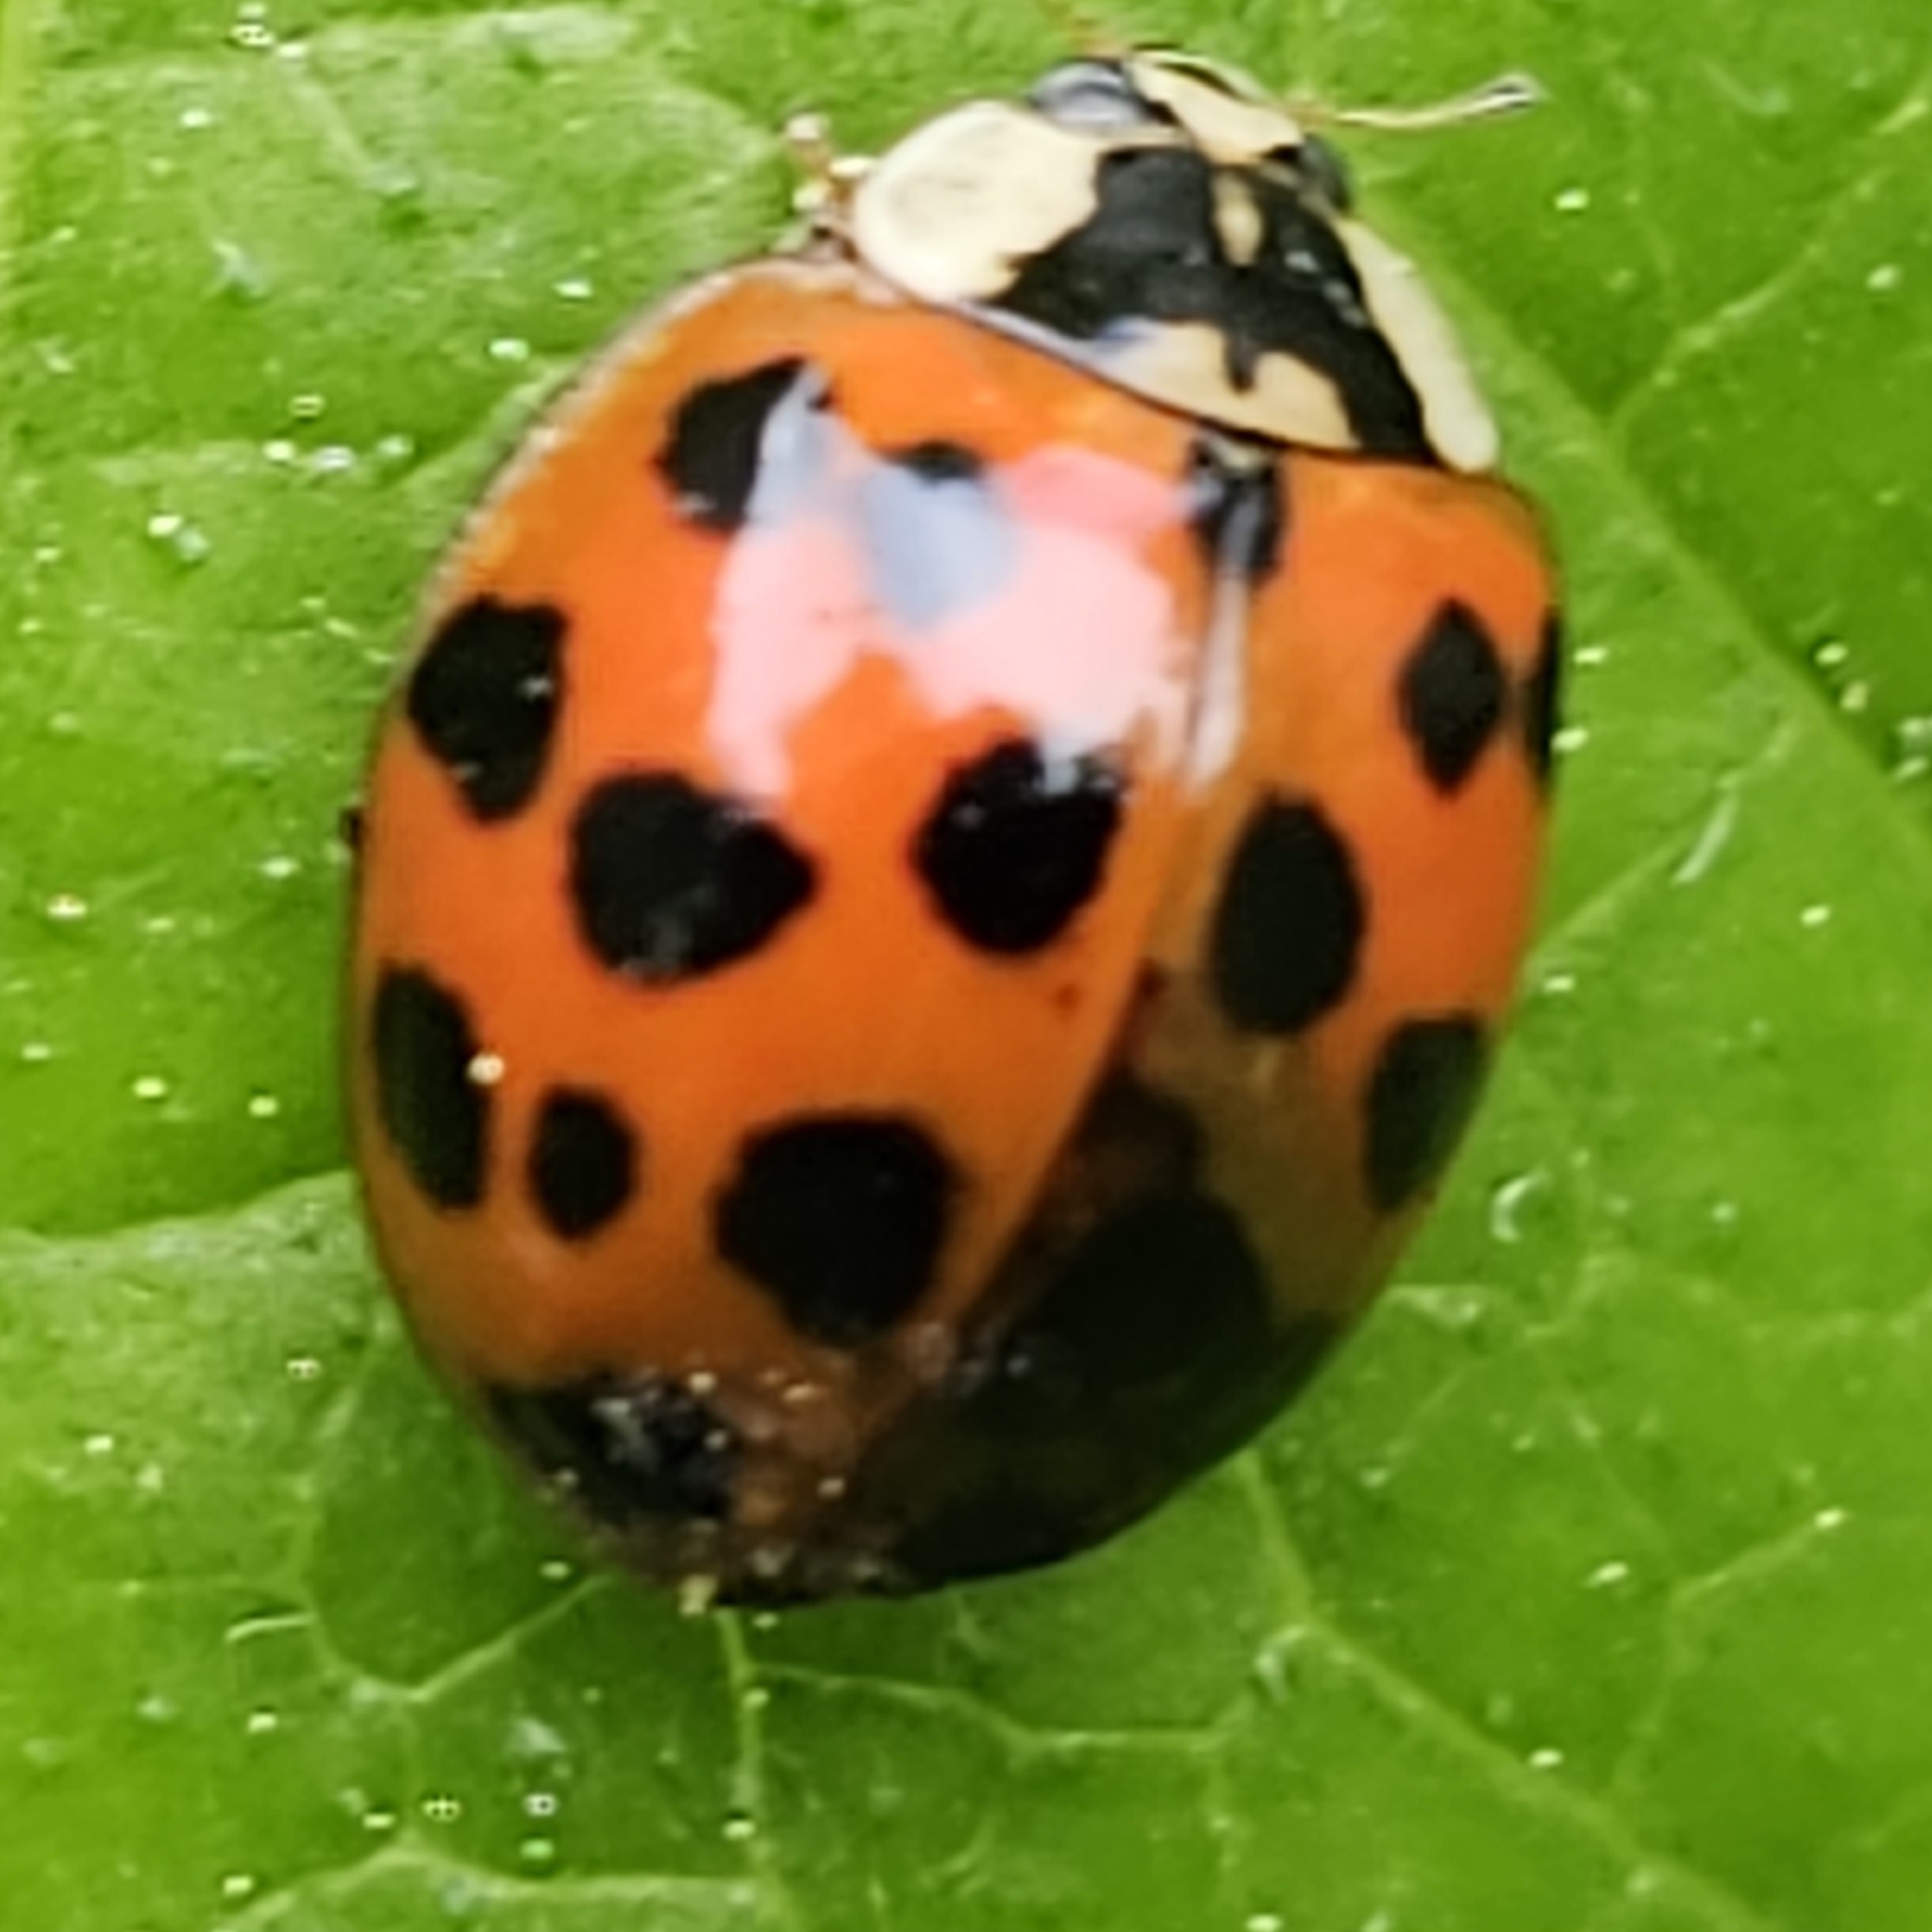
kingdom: Animalia
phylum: Arthropoda
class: Insecta
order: Coleoptera
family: Coccinellidae
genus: Harmonia
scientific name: Harmonia axyridis
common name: Harlequin ladybird
